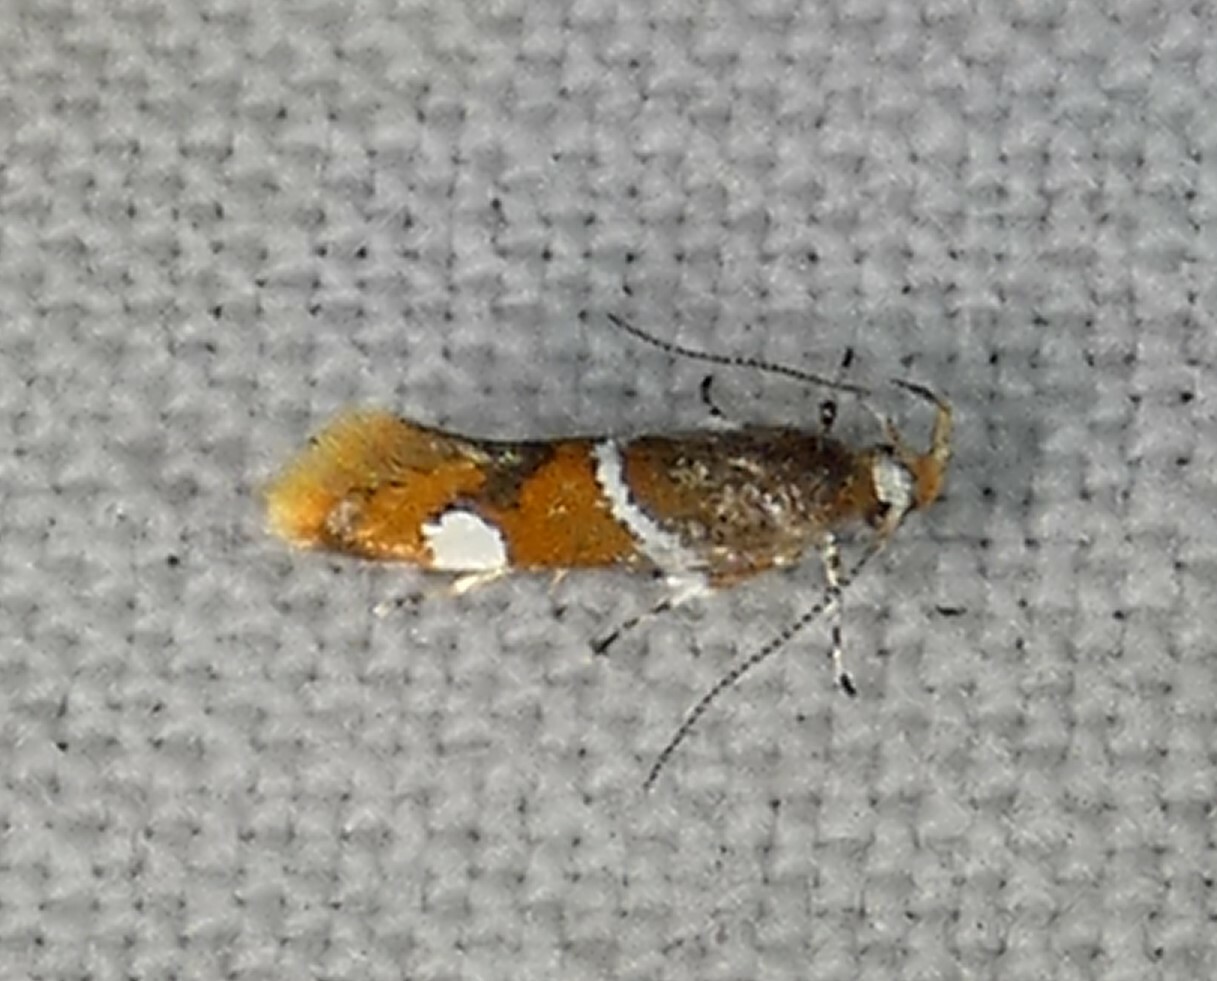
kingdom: Animalia
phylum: Arthropoda
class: Insecta
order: Lepidoptera
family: Oecophoridae
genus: Promalactis
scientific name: Promalactis suzukiella
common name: Moth
